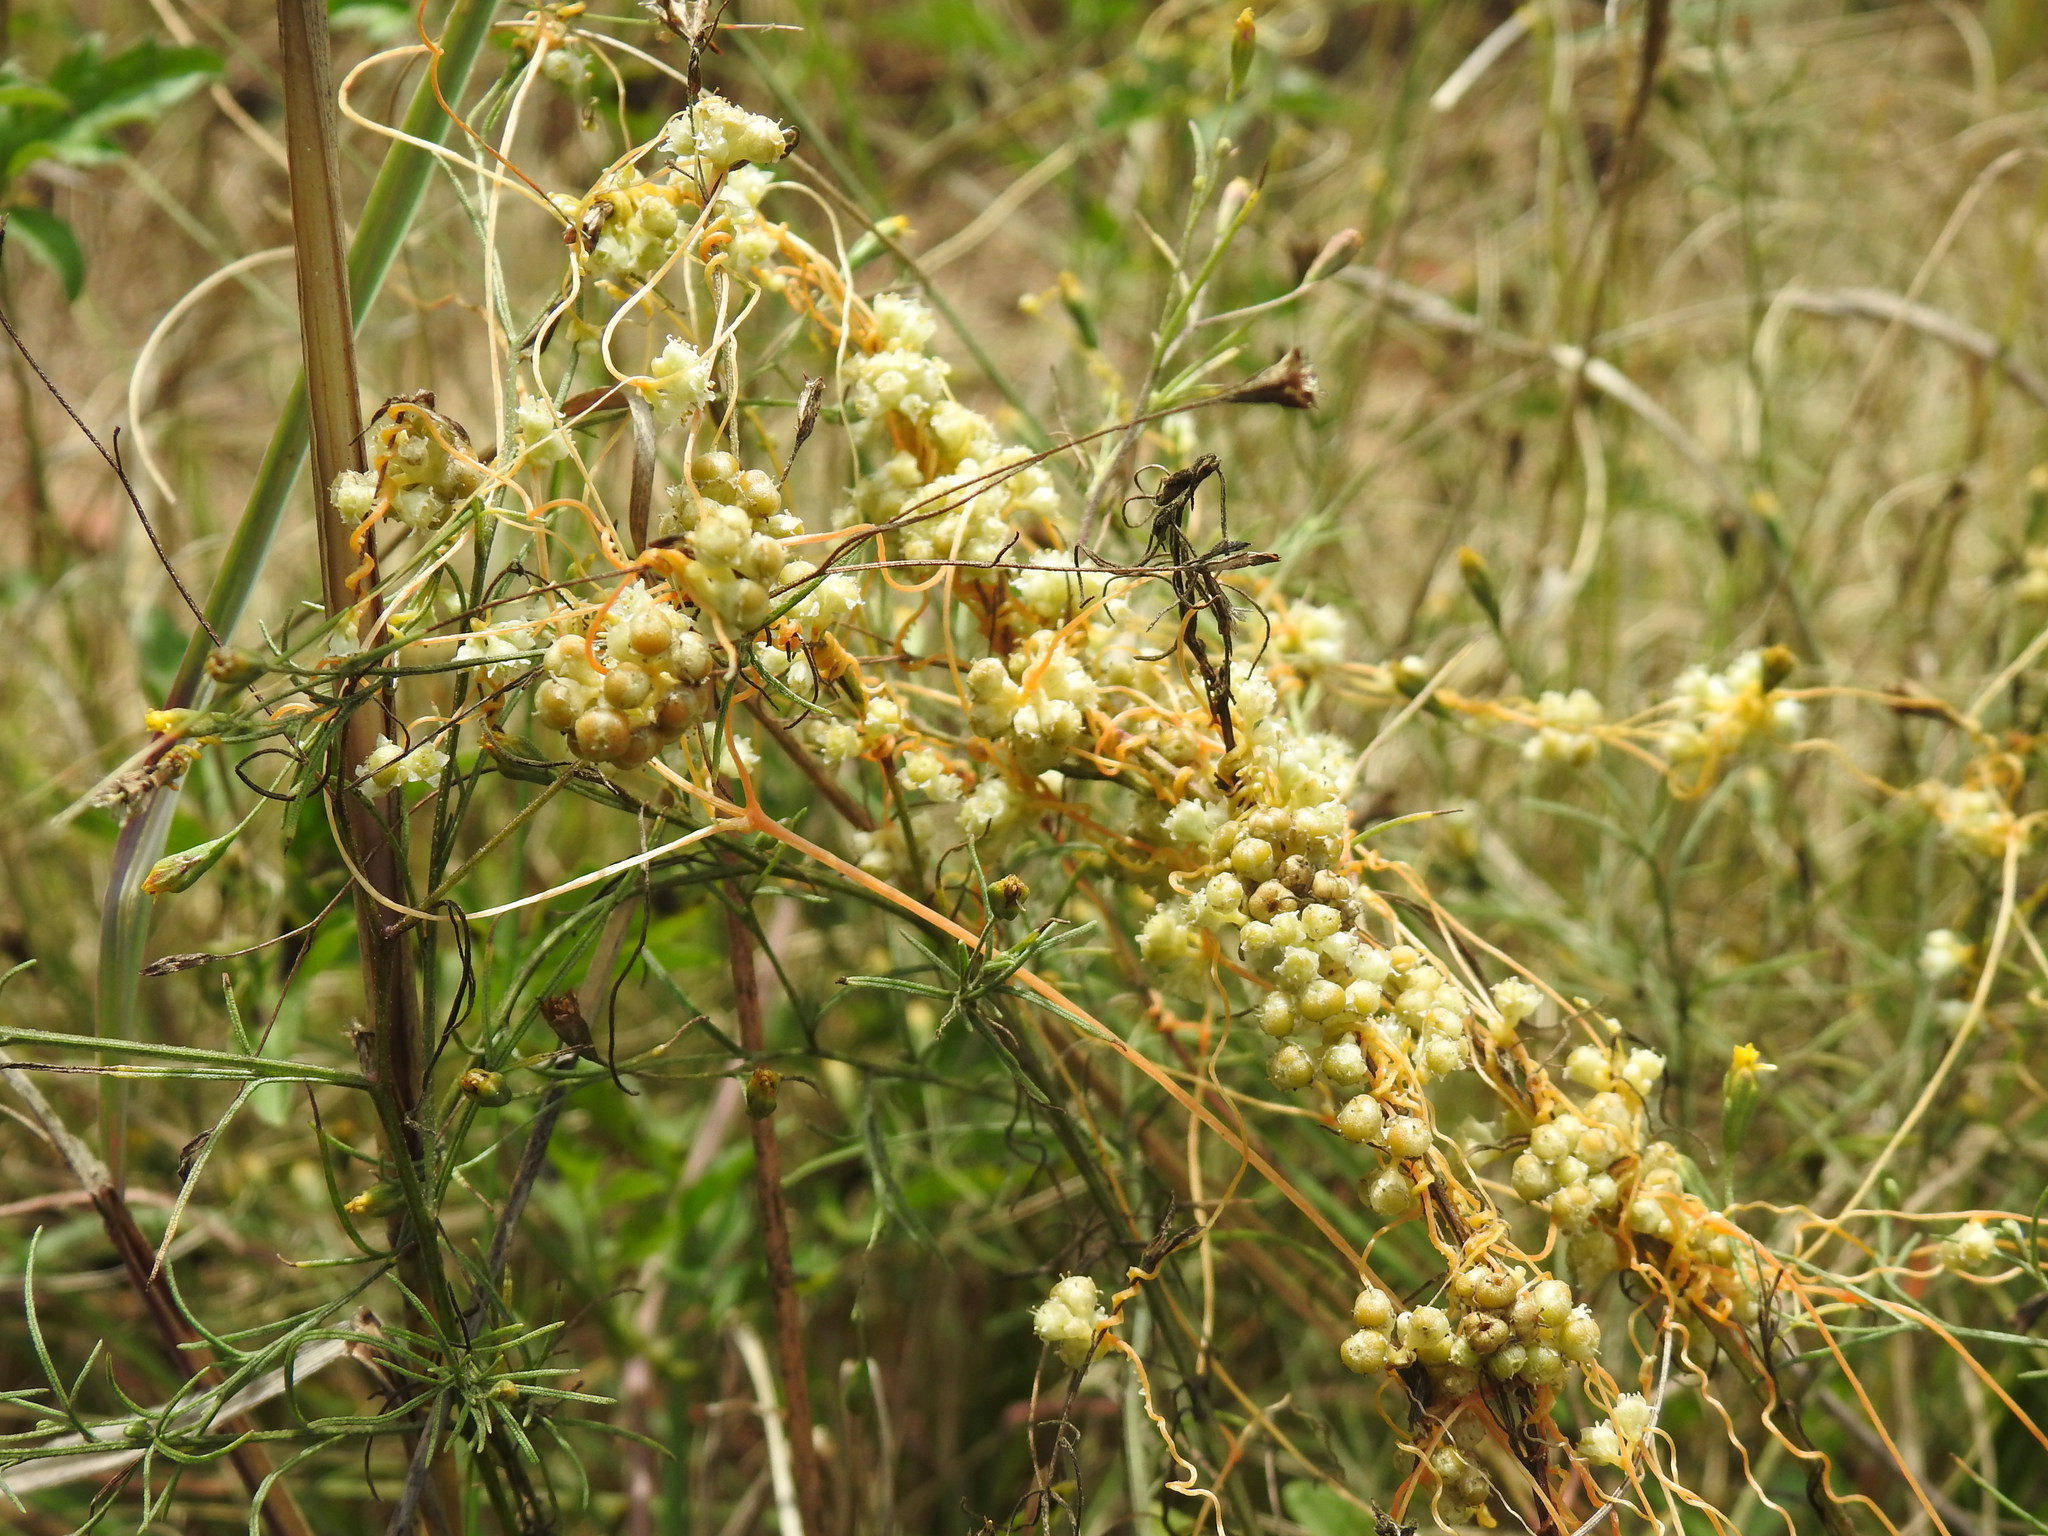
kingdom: Plantae
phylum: Tracheophyta
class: Magnoliopsida
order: Solanales
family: Convolvulaceae
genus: Cuscuta
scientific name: Cuscuta campestris
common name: Yellow dodder
